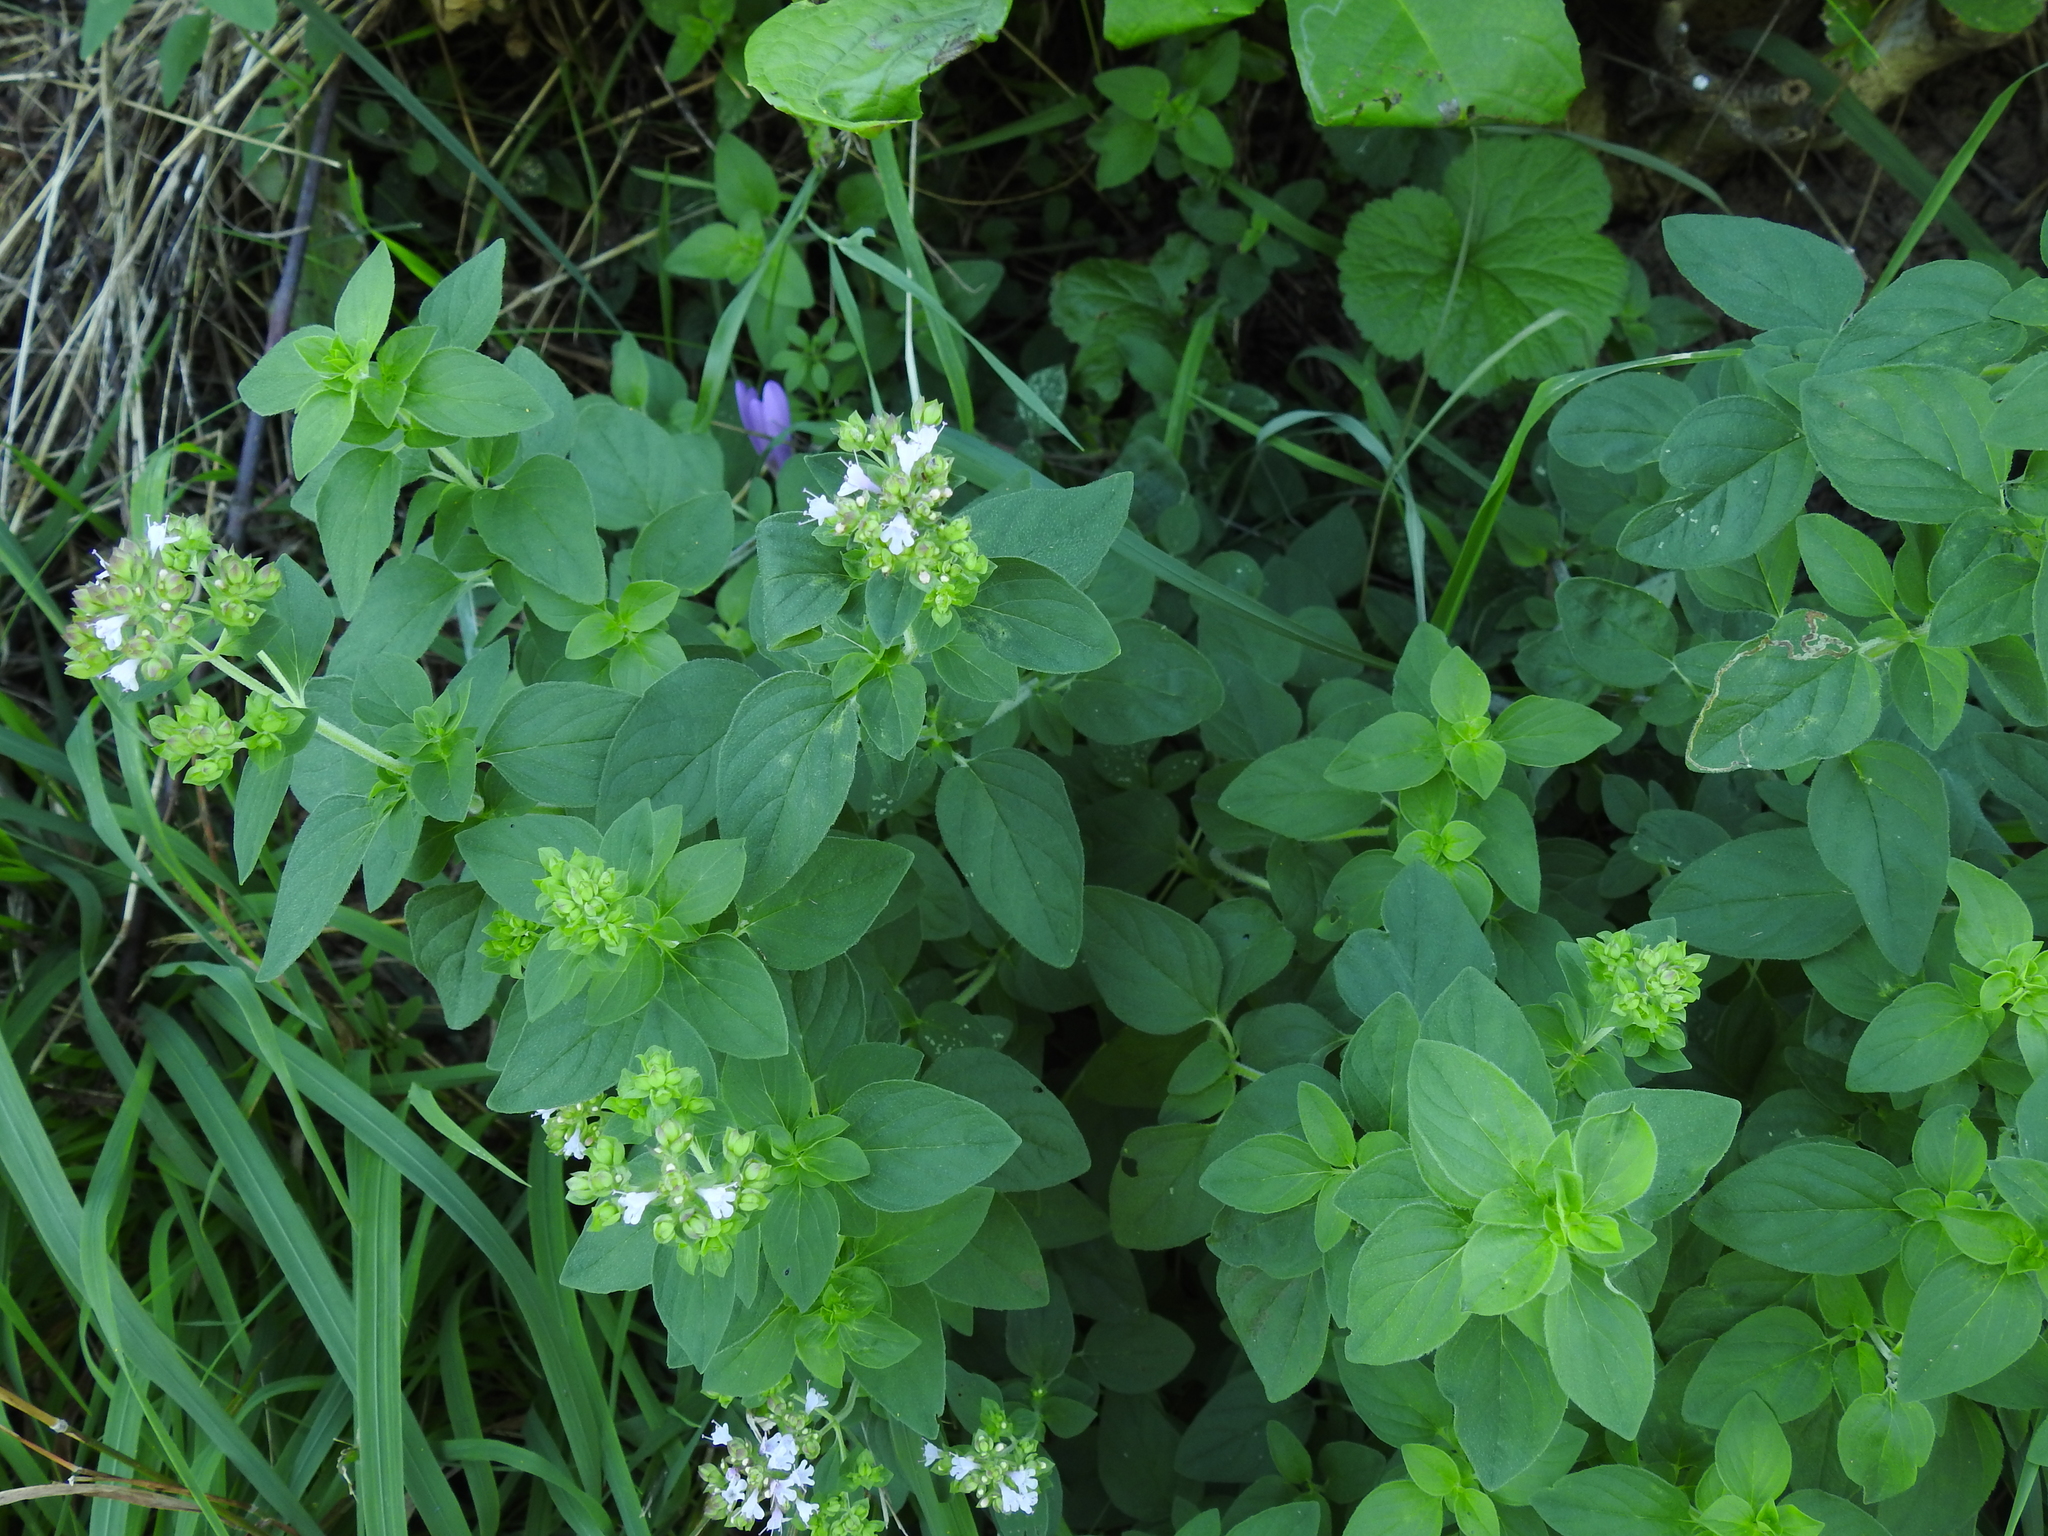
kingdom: Plantae
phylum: Tracheophyta
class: Magnoliopsida
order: Lamiales
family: Lamiaceae
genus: Origanum
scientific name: Origanum vulgare
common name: Wild marjoram
